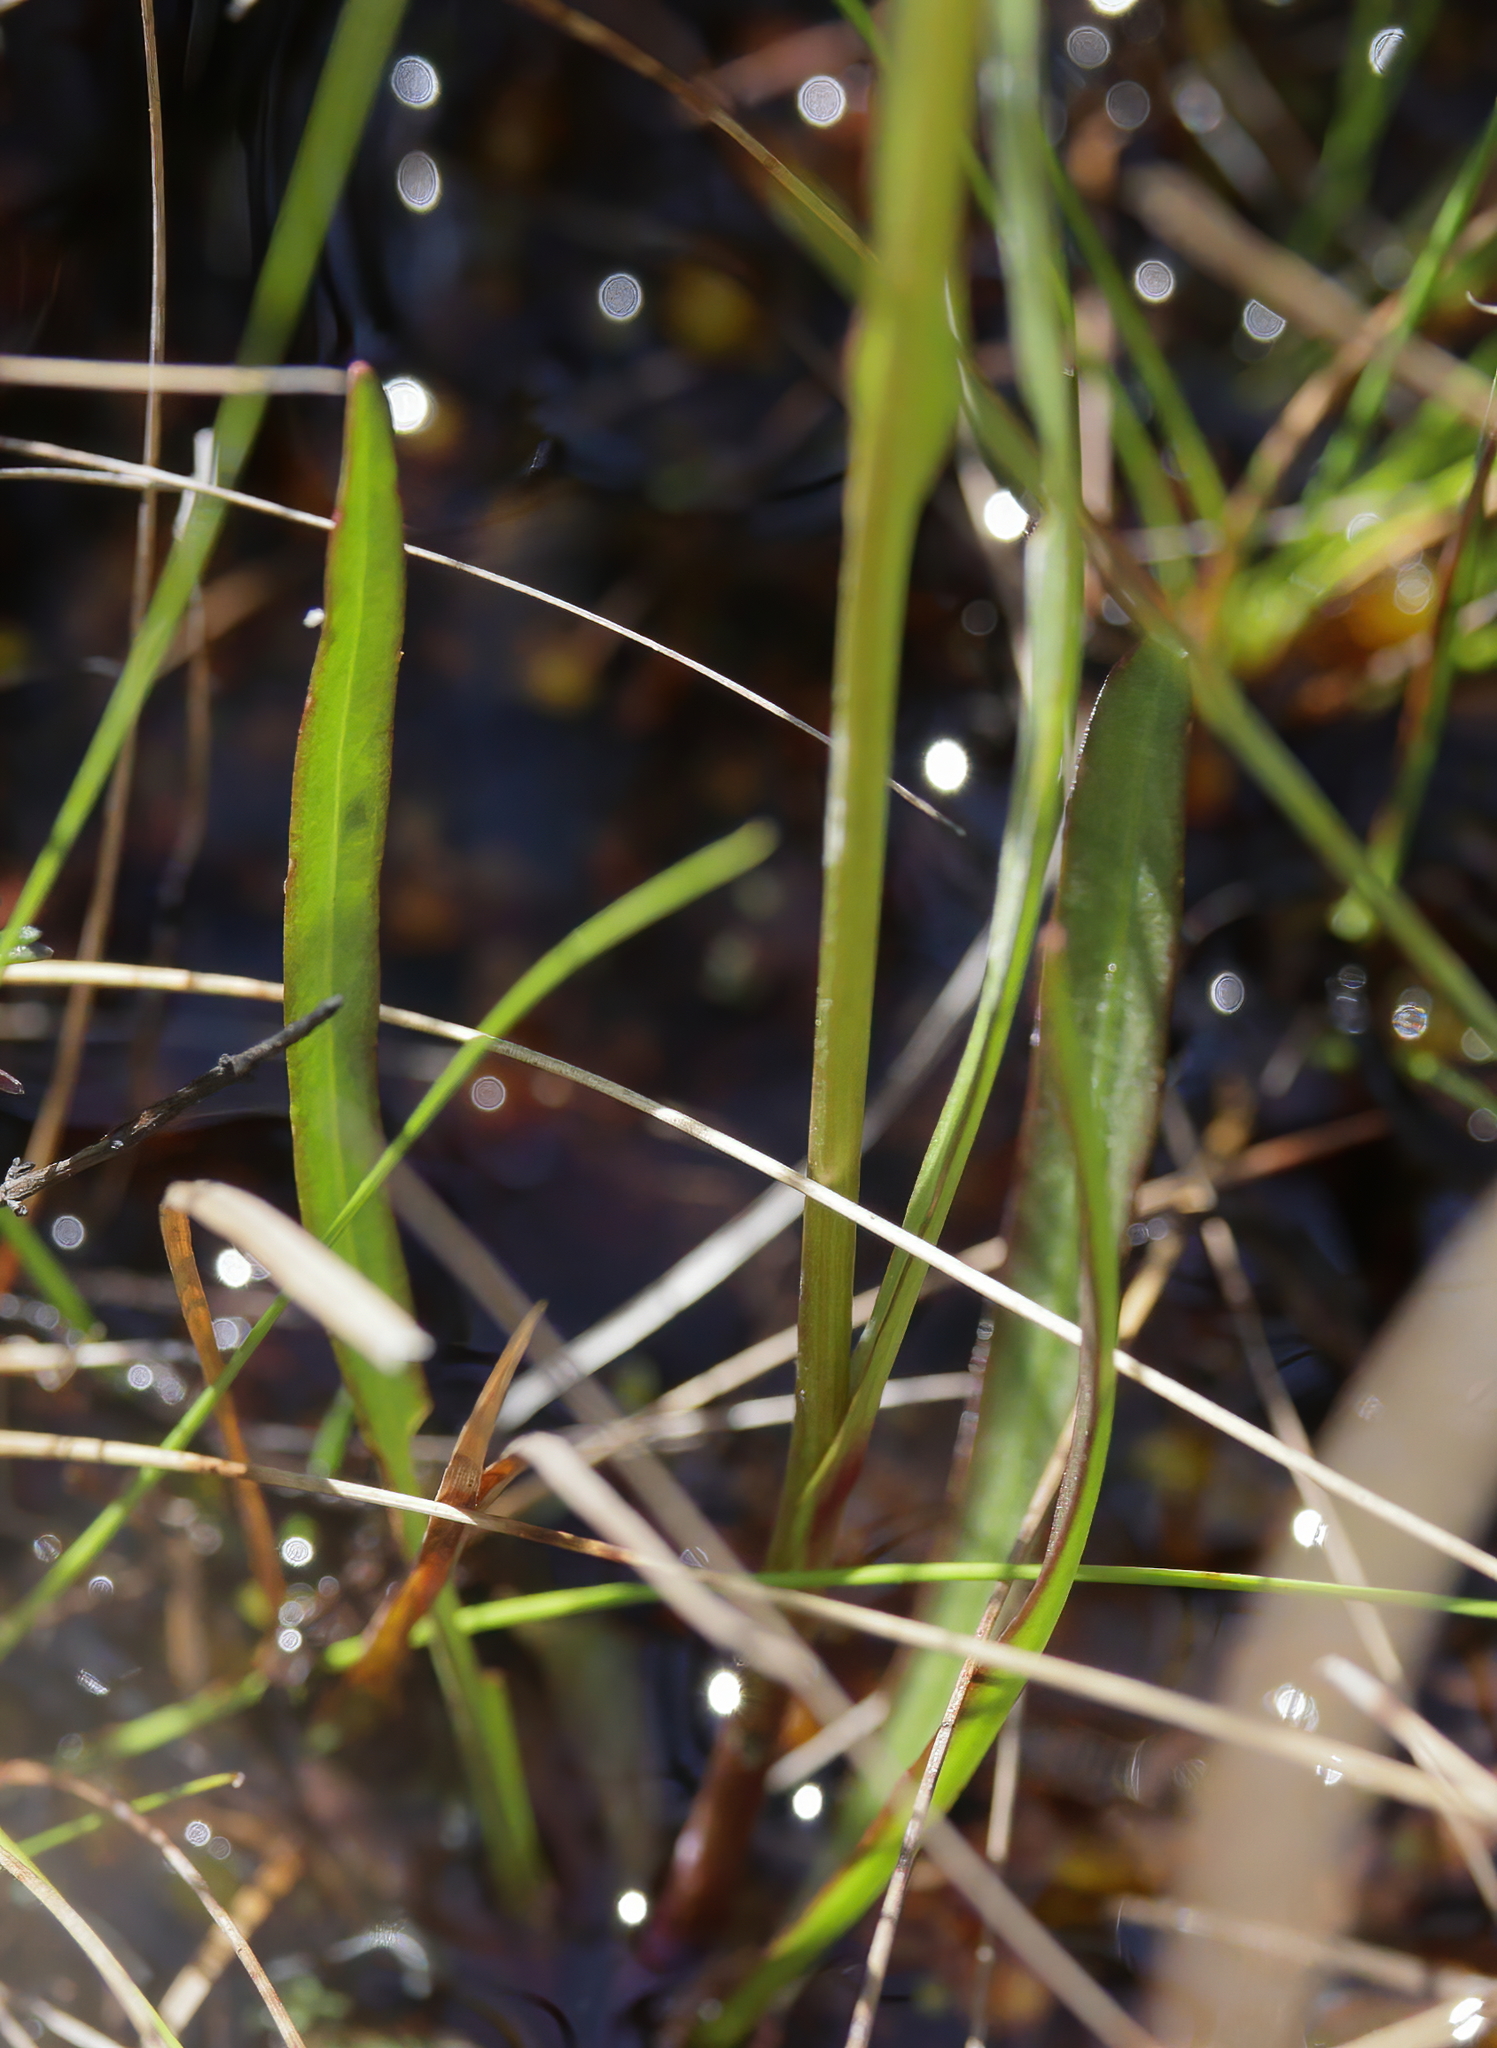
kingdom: Plantae
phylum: Tracheophyta
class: Magnoliopsida
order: Asterales
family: Asteraceae
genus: Helenium
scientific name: Helenium vernale
